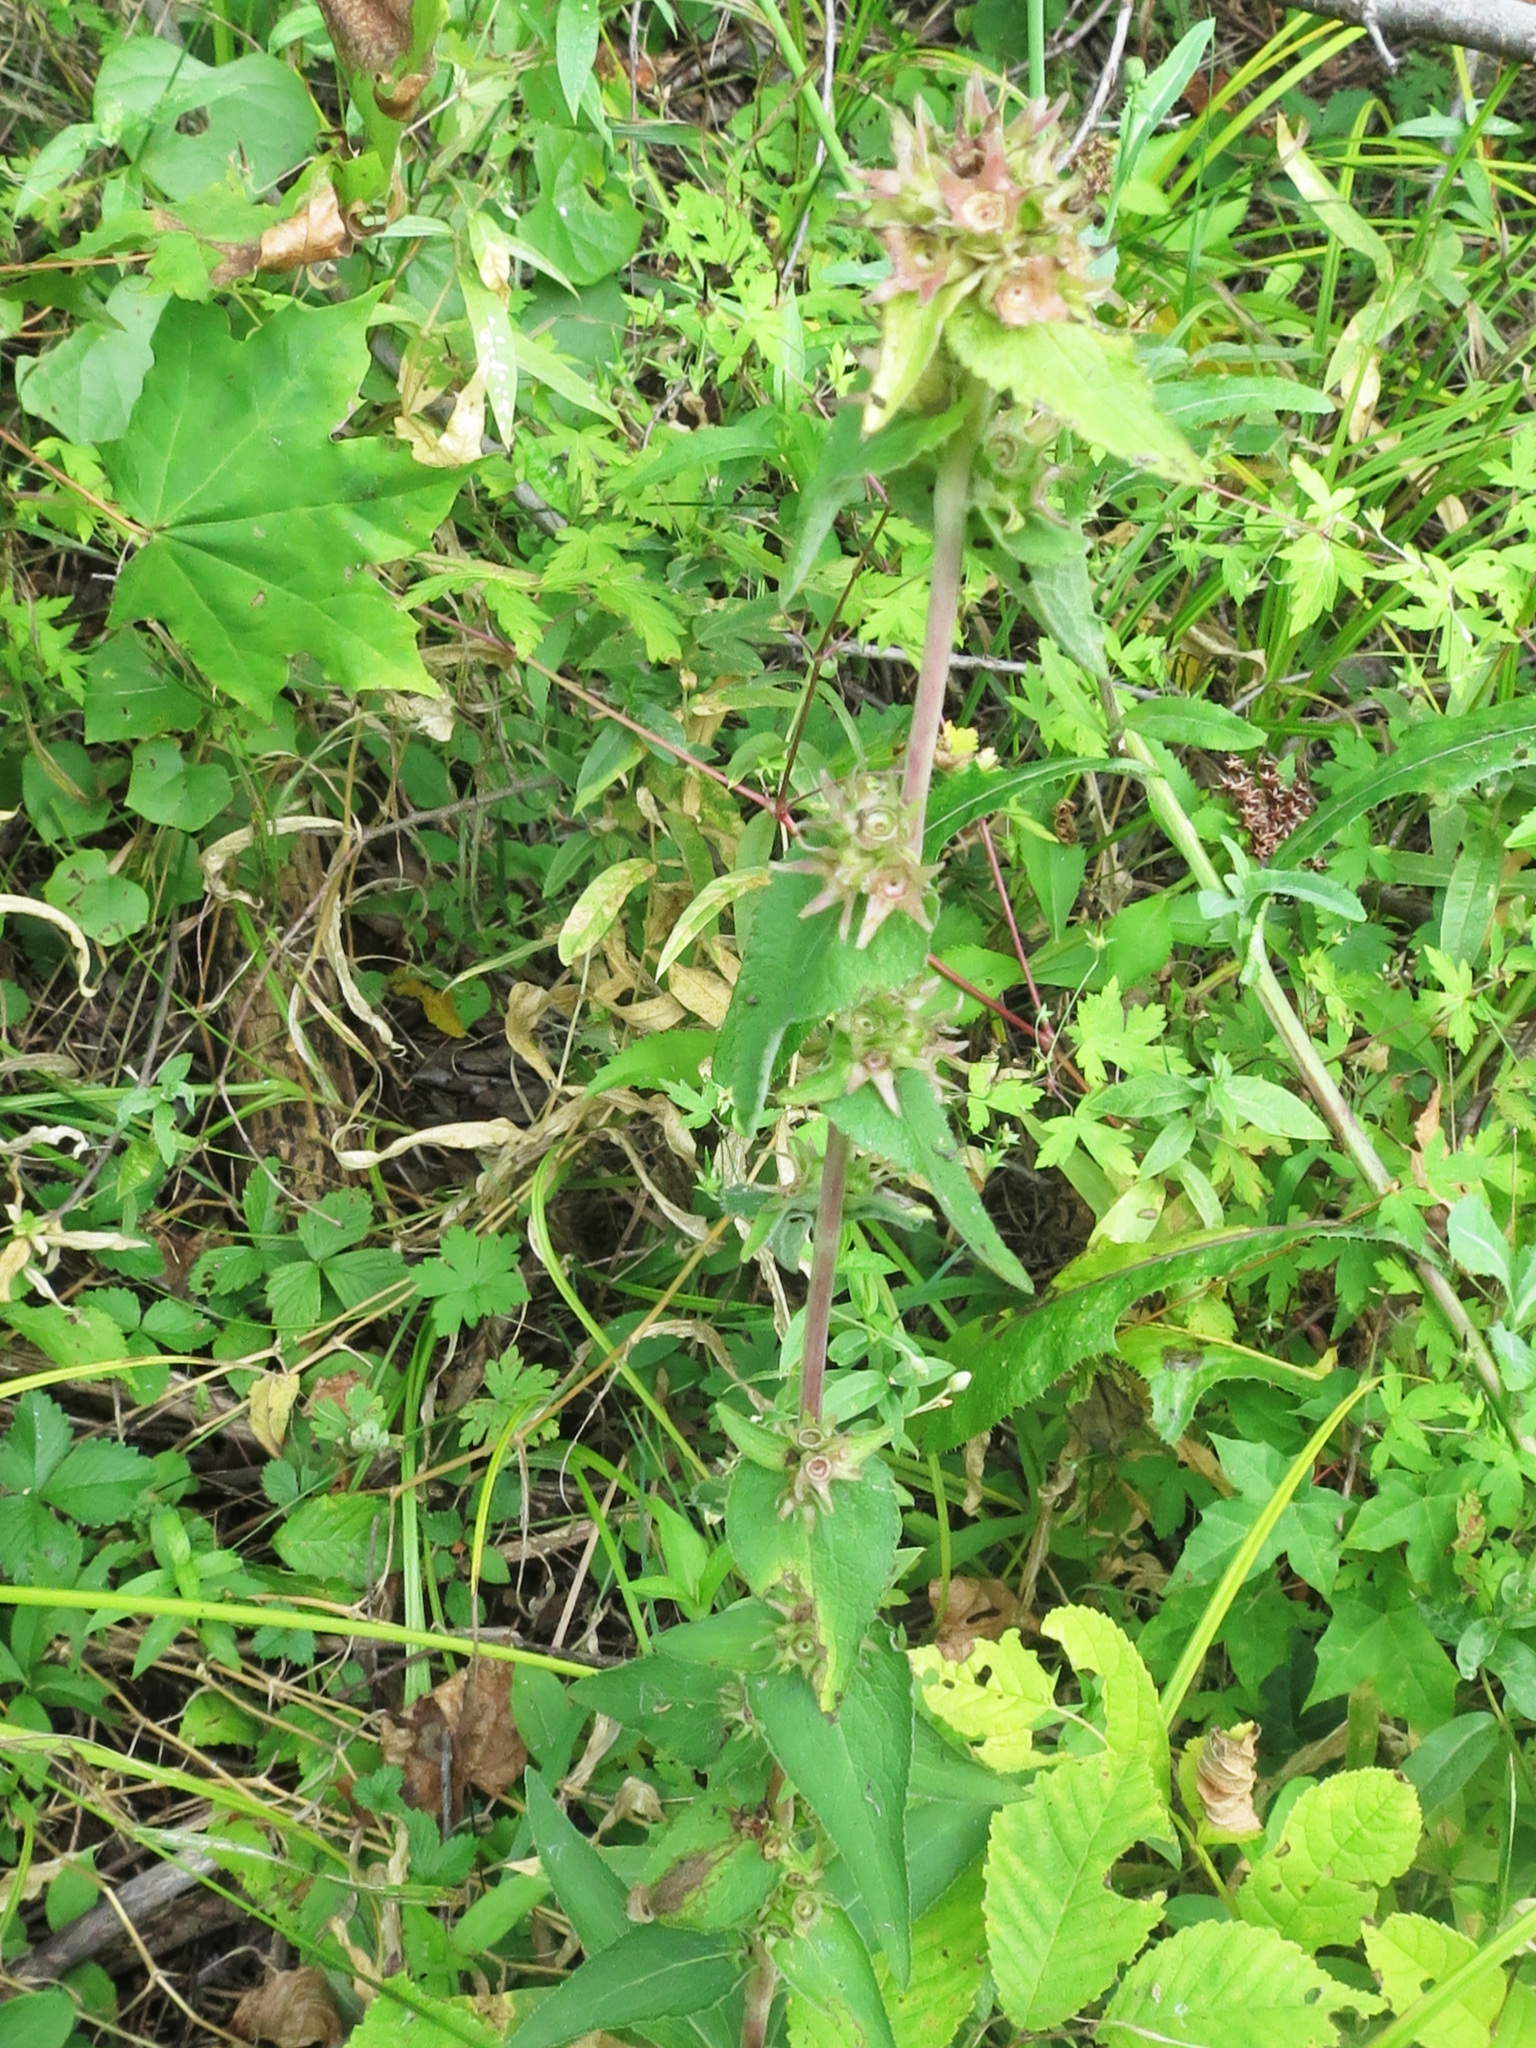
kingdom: Plantae
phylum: Tracheophyta
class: Magnoliopsida
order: Asterales
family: Campanulaceae
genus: Campanula
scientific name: Campanula glomerata
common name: Clustered bellflower
